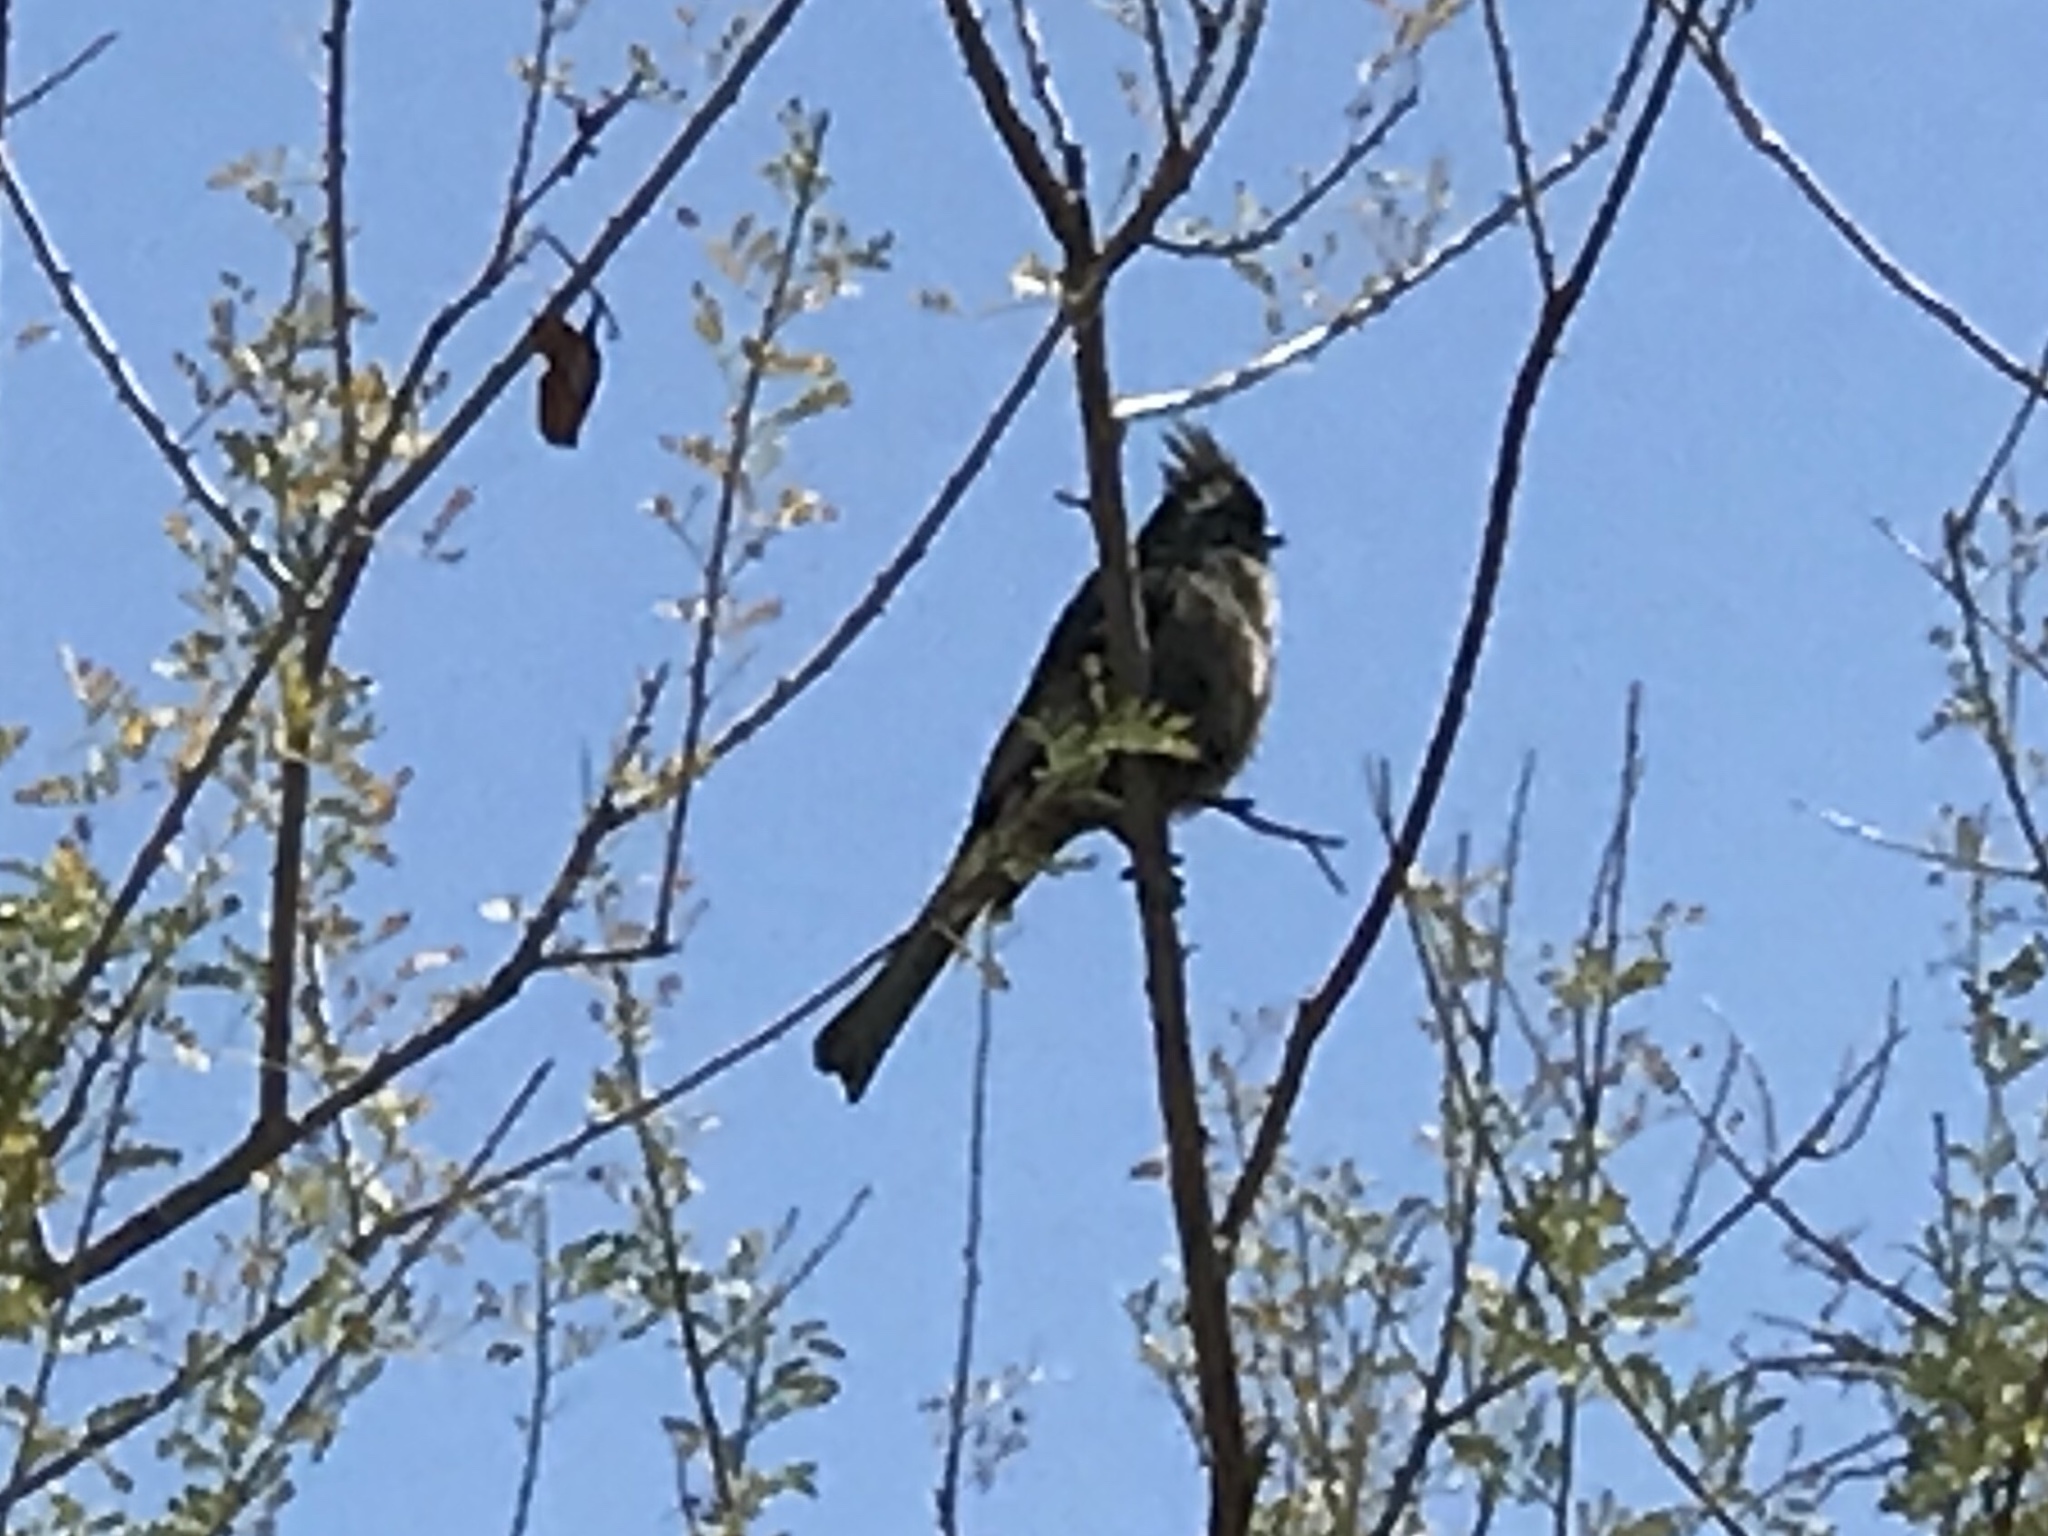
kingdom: Animalia
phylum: Chordata
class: Aves
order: Passeriformes
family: Ptilogonatidae
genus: Phainopepla
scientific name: Phainopepla nitens
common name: Phainopepla
